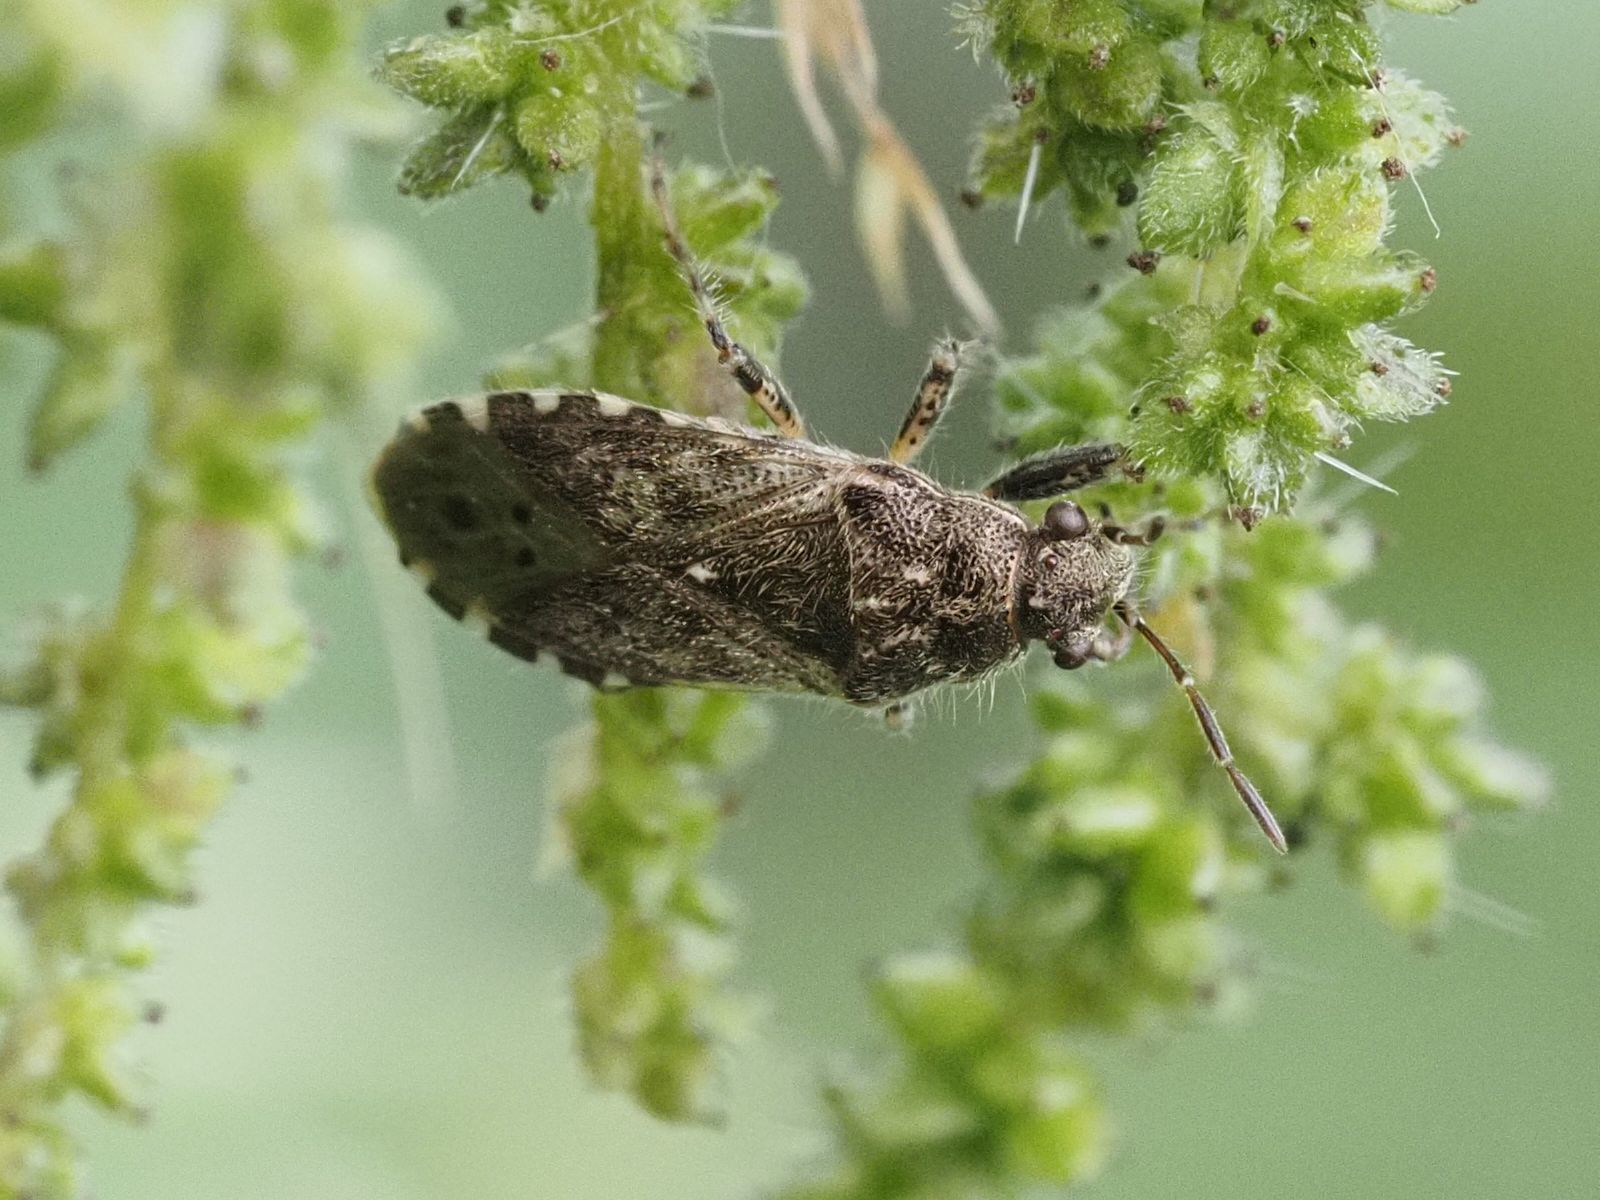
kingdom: Animalia
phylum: Arthropoda
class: Insecta
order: Hemiptera
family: Heterogastridae
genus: Heterogaster
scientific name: Heterogaster urticae
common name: Seed bug
